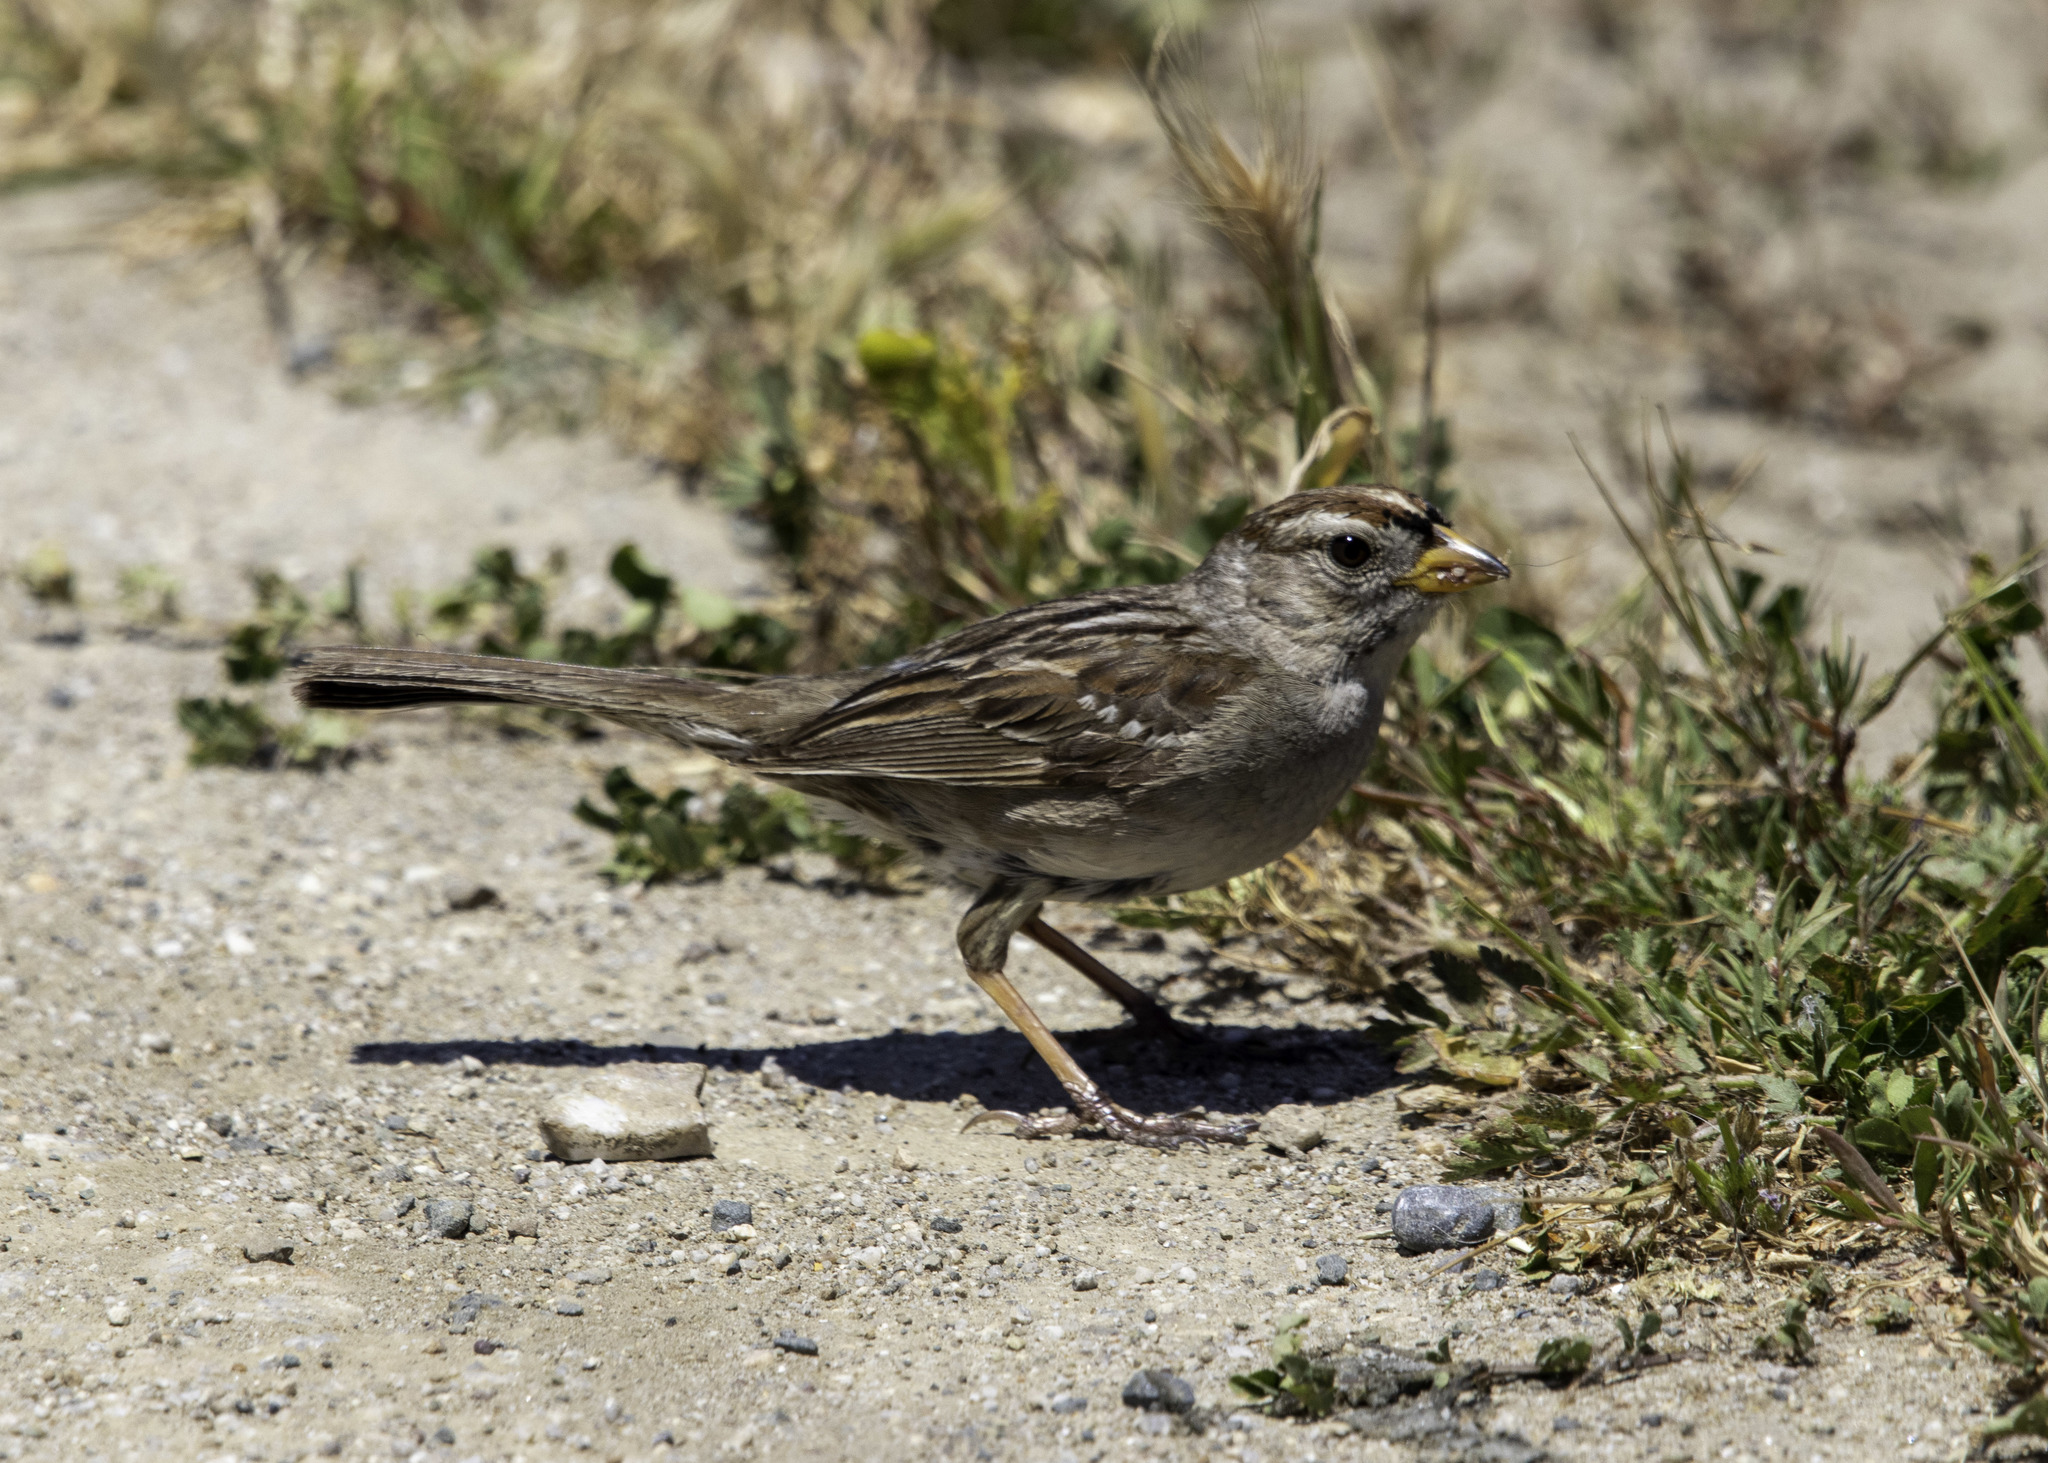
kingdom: Animalia
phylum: Chordata
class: Aves
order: Passeriformes
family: Passerellidae
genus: Zonotrichia
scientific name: Zonotrichia leucophrys
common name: White-crowned sparrow
